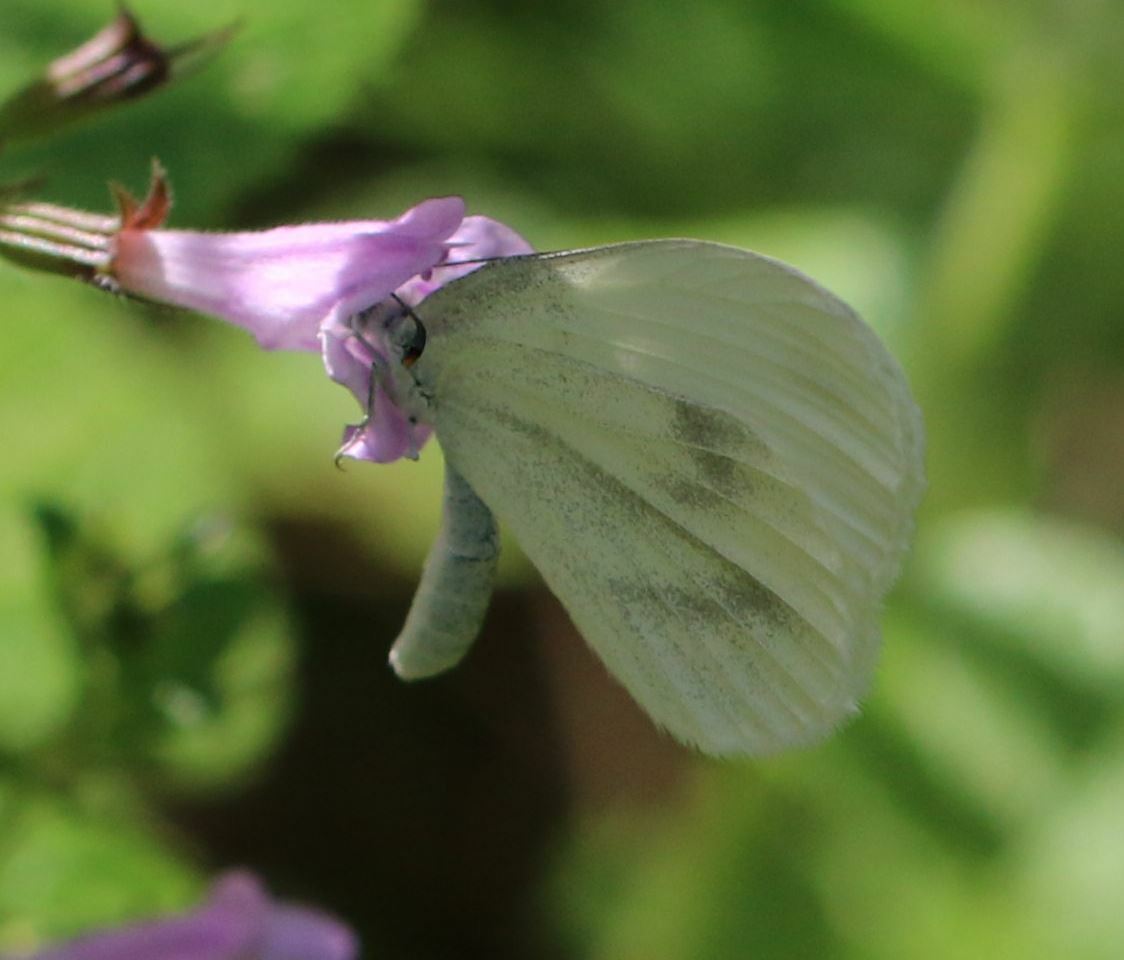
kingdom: Animalia
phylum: Arthropoda
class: Insecta
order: Lepidoptera
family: Pieridae
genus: Leptidea
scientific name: Leptidea
